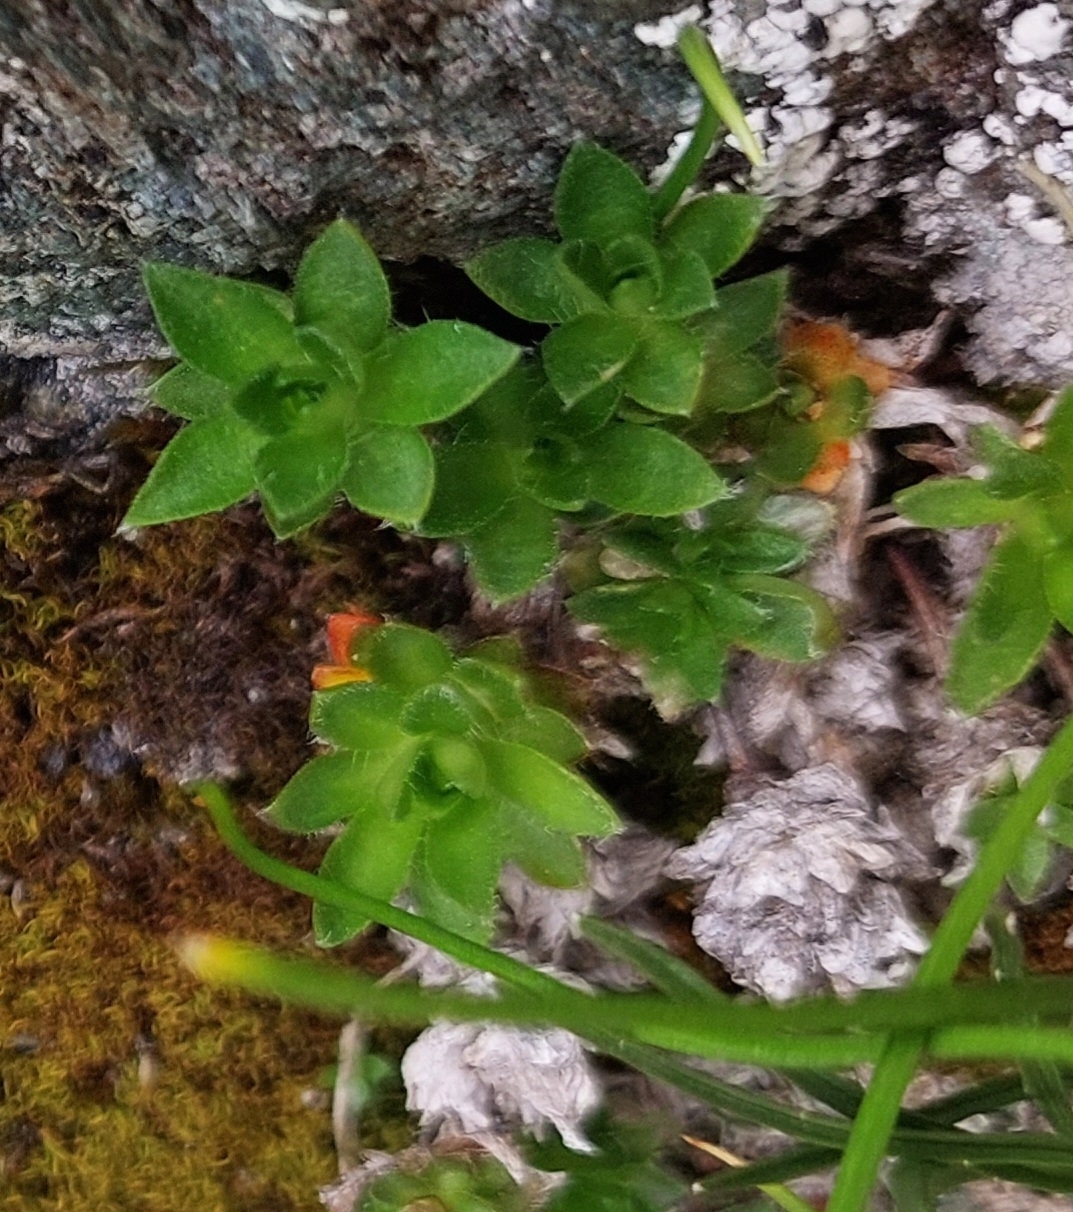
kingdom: Plantae
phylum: Tracheophyta
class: Magnoliopsida
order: Ericales
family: Primulaceae
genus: Androsace
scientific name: Androsace chamaejasme
